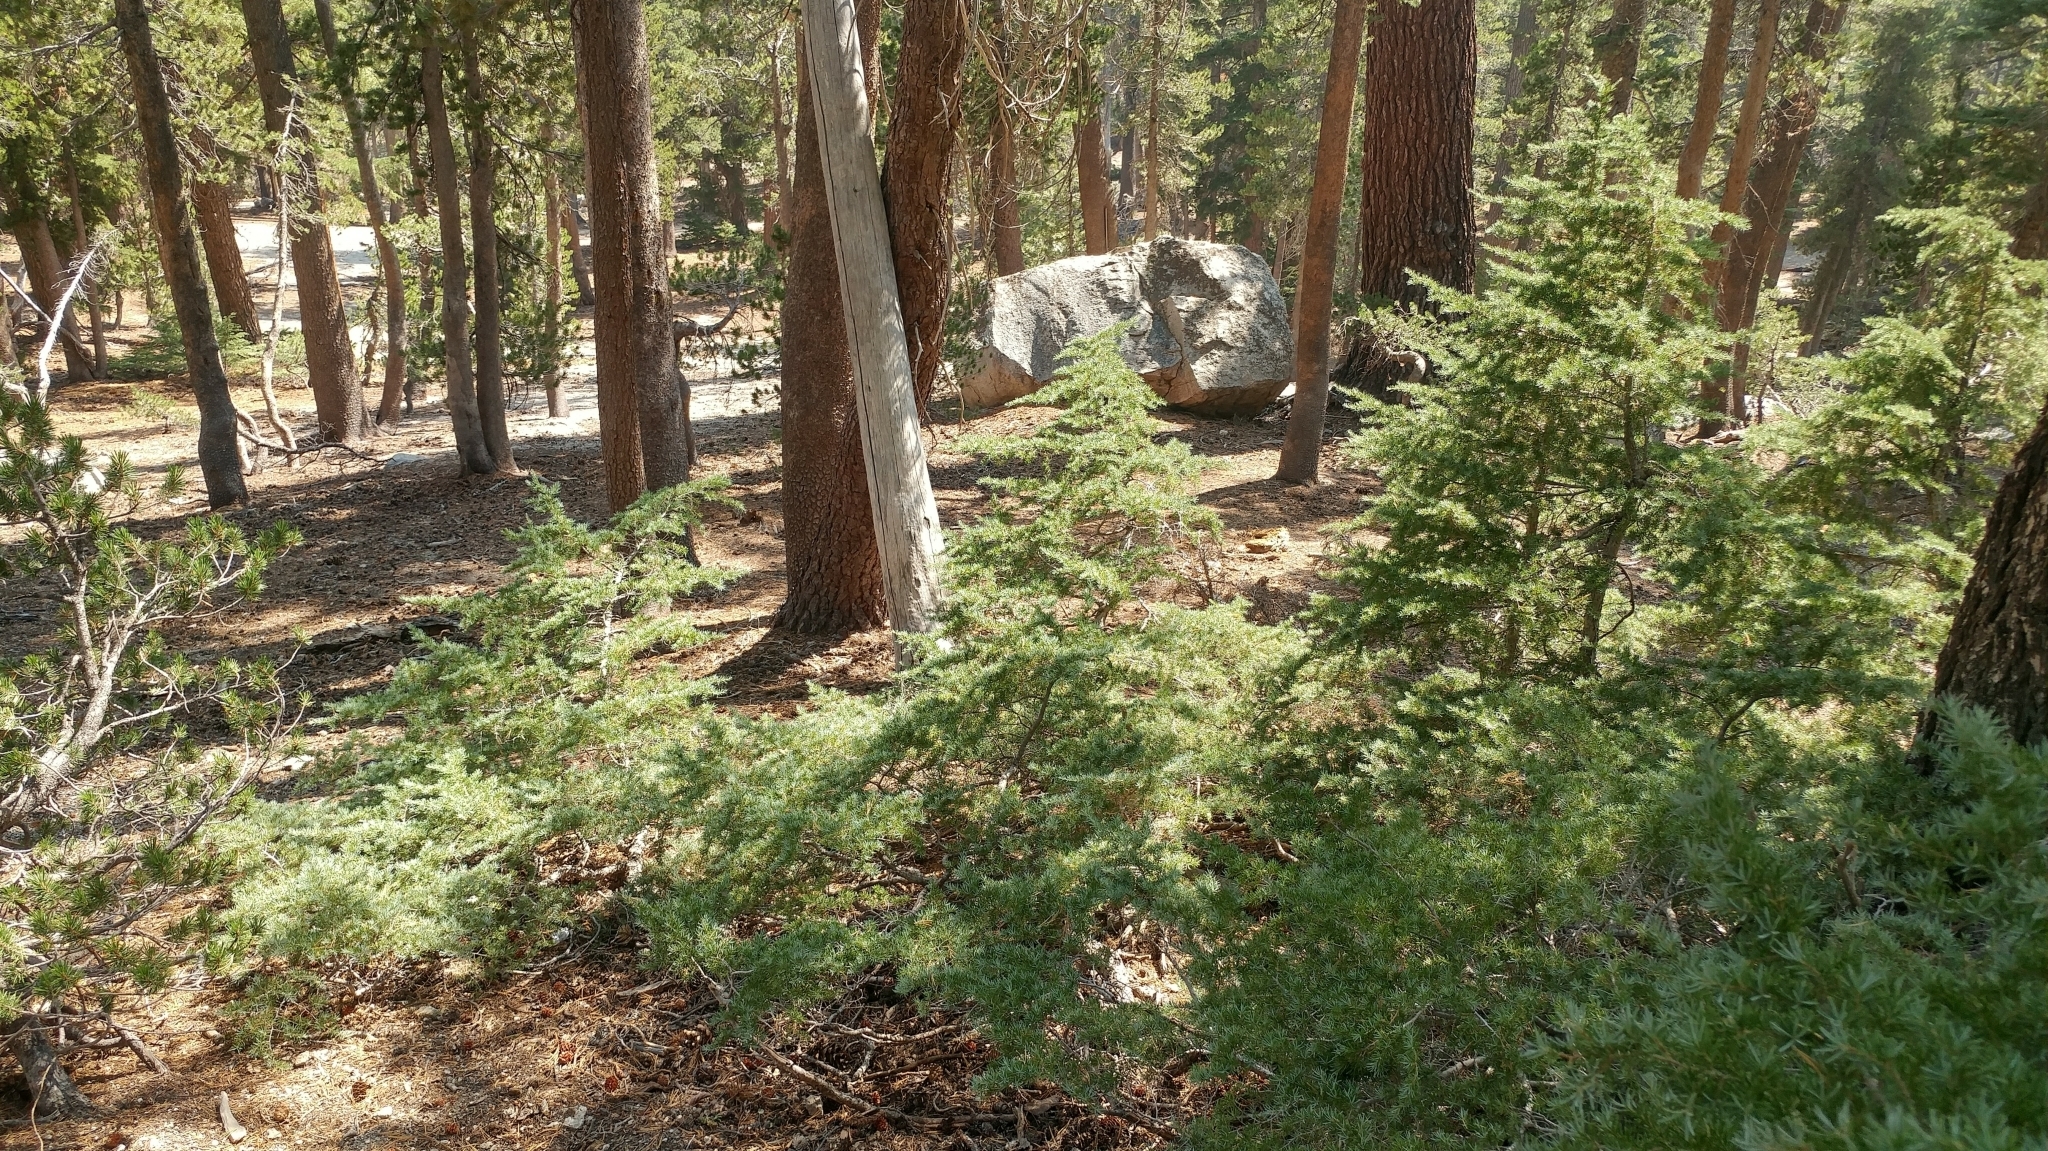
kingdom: Plantae
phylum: Tracheophyta
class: Pinopsida
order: Pinales
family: Pinaceae
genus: Tsuga
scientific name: Tsuga mertensiana
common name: Mountain hemlock
